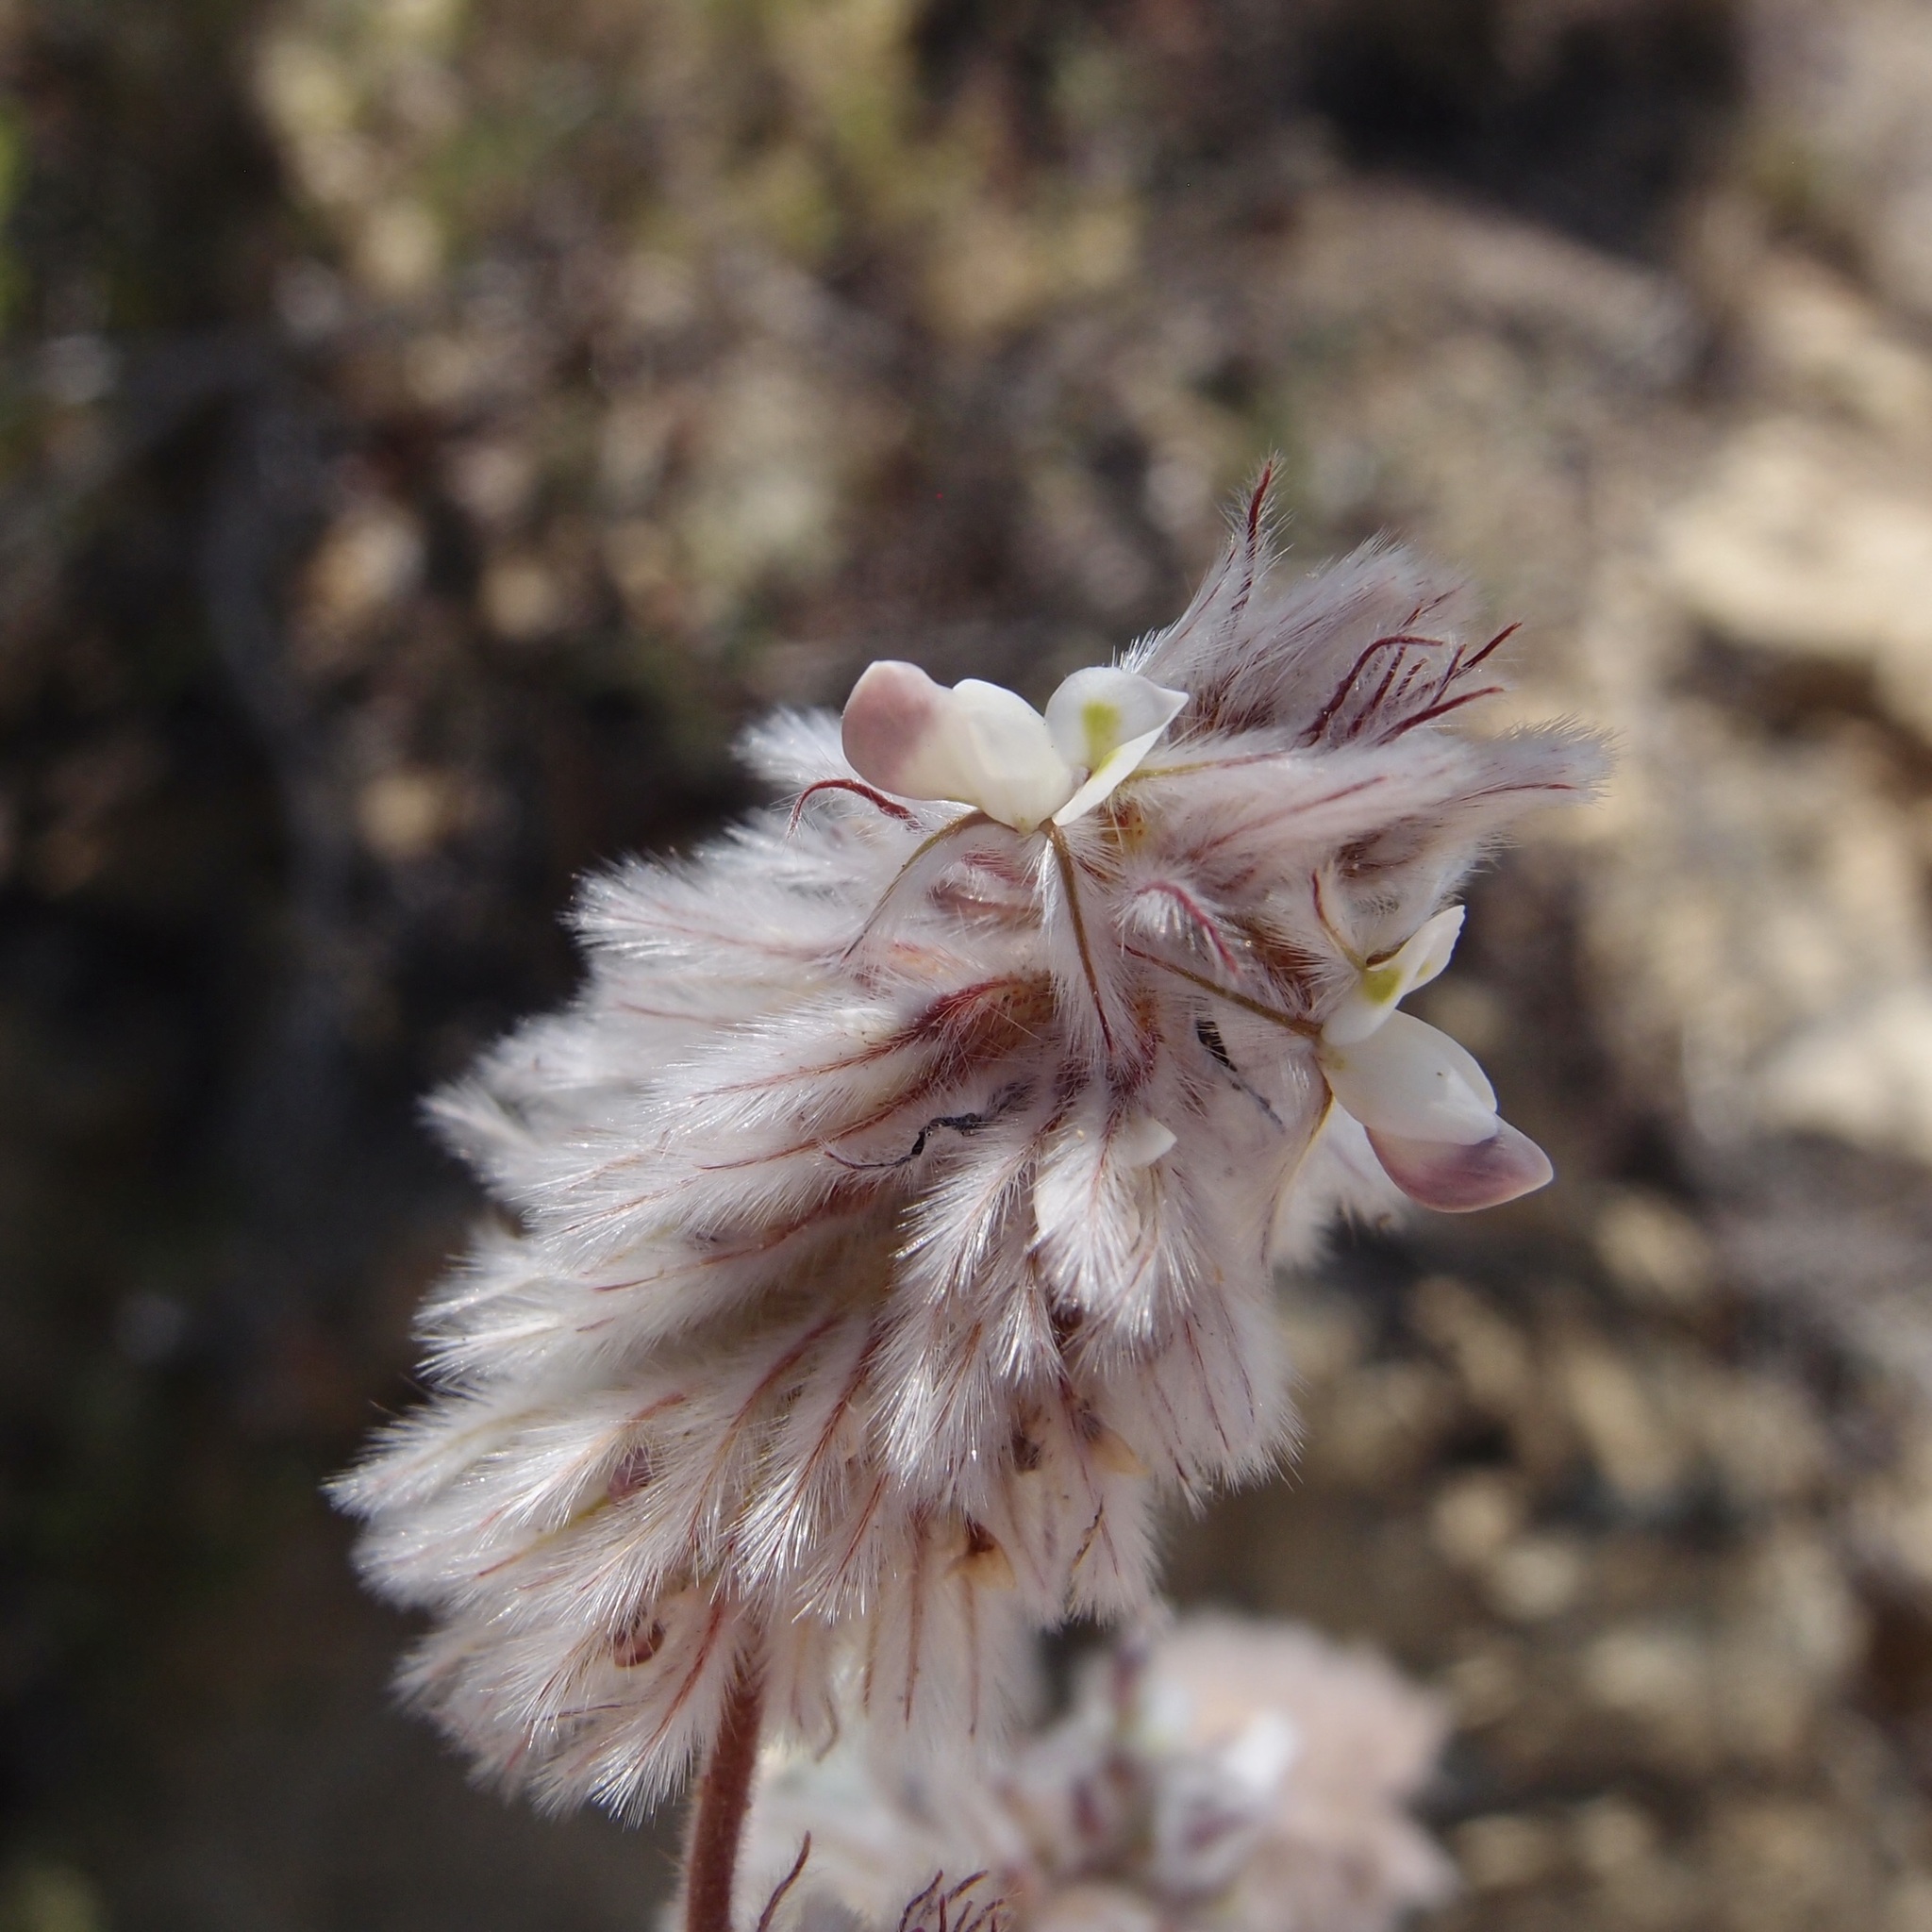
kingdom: Plantae
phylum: Tracheophyta
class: Magnoliopsida
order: Fabales
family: Fabaceae
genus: Dalea
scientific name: Dalea neomexicana
